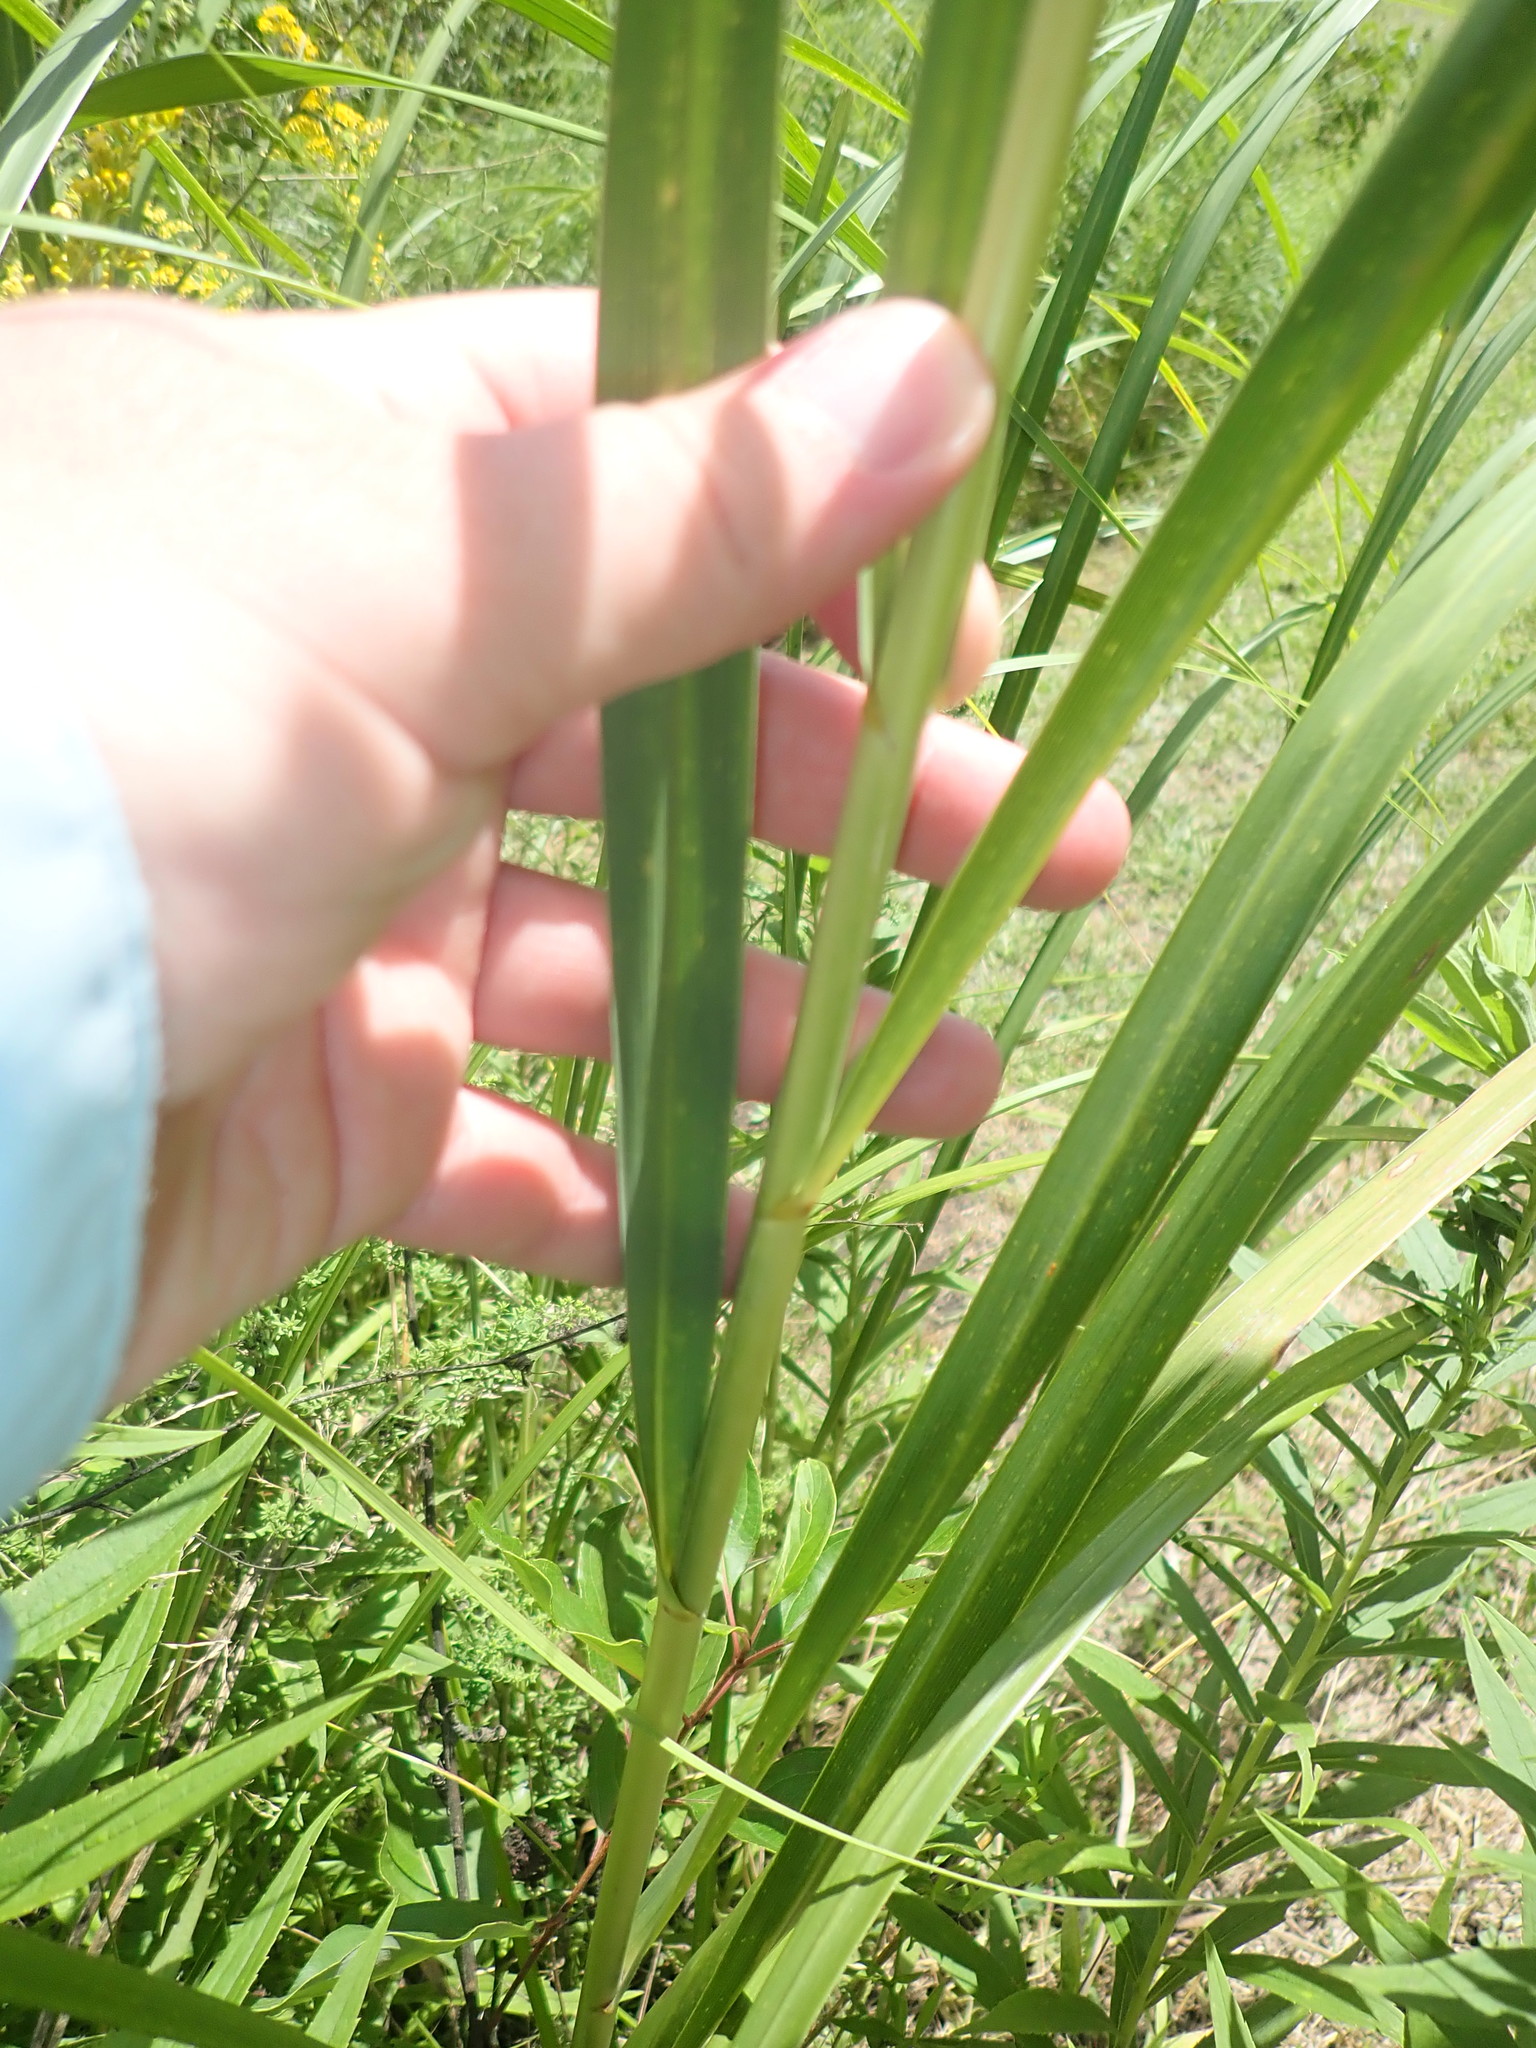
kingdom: Plantae
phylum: Tracheophyta
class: Liliopsida
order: Poales
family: Poaceae
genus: Sporobolus
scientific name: Sporobolus michauxianus
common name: Freshwater cordgrass
